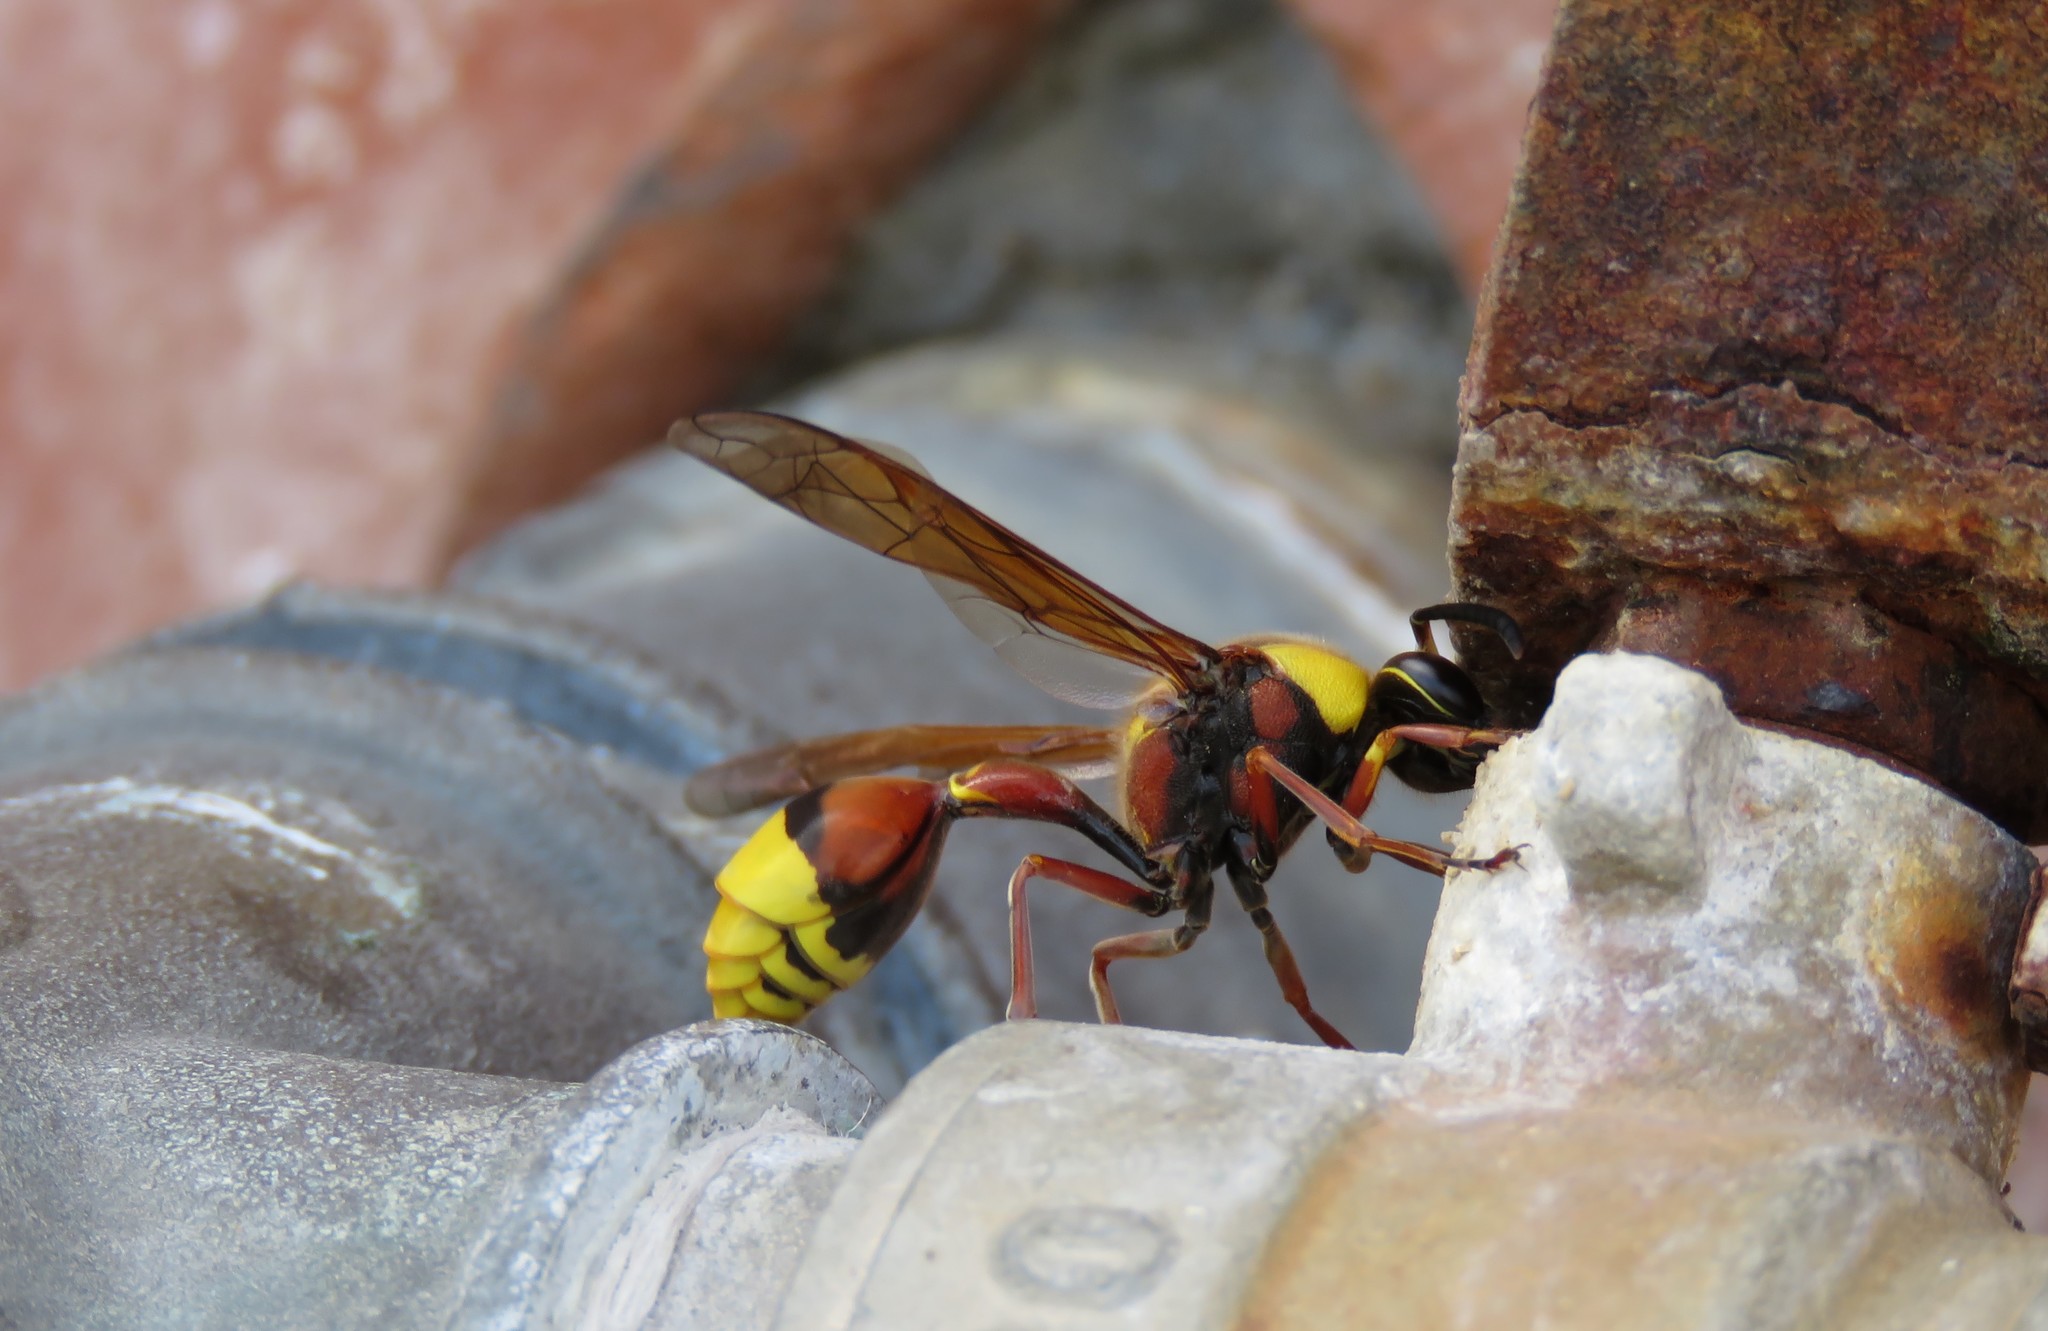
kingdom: Animalia
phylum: Arthropoda
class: Insecta
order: Hymenoptera
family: Eumenidae
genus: Delta
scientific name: Delta unguiculatum
